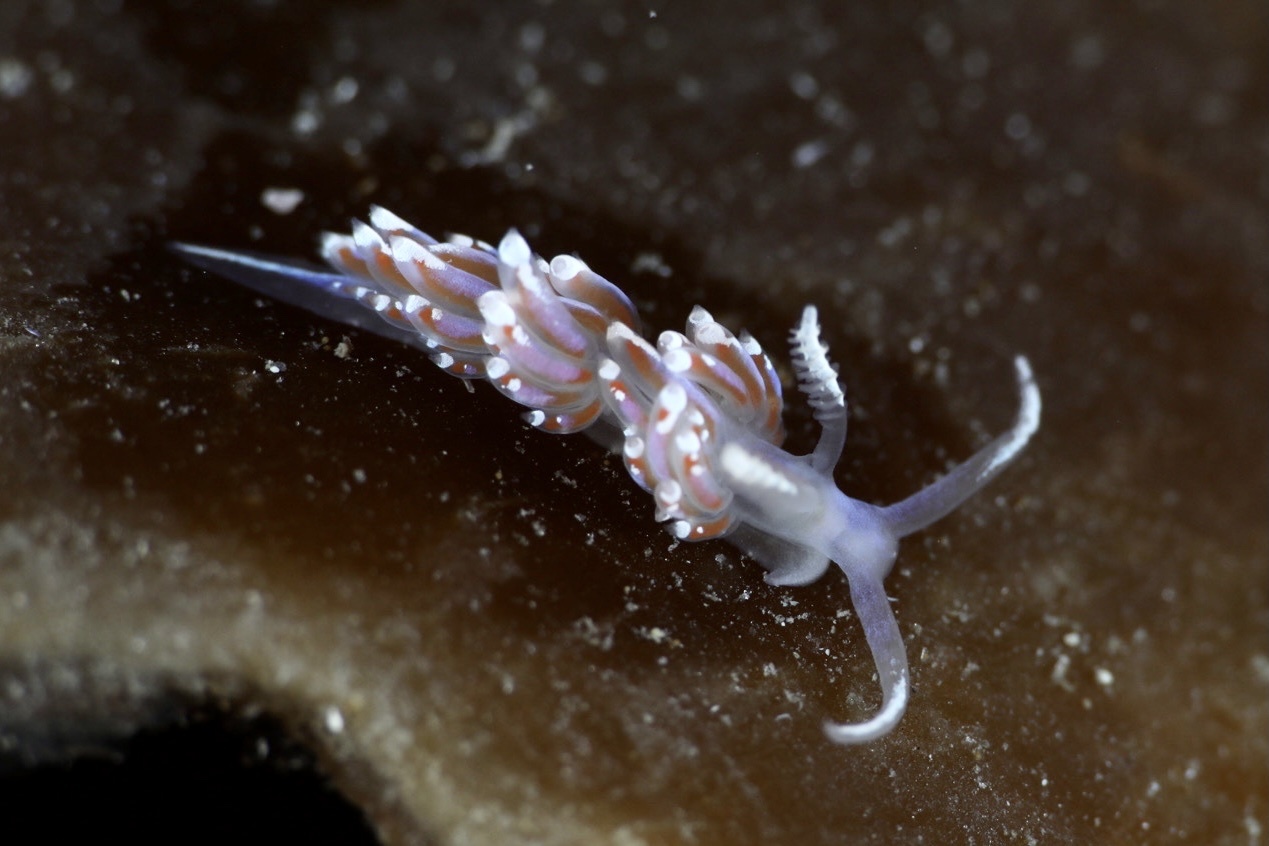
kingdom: Animalia
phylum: Mollusca
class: Gastropoda
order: Nudibranchia
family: Facelinidae
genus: Facelina
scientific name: Facelina auriculata
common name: Slender facelina
